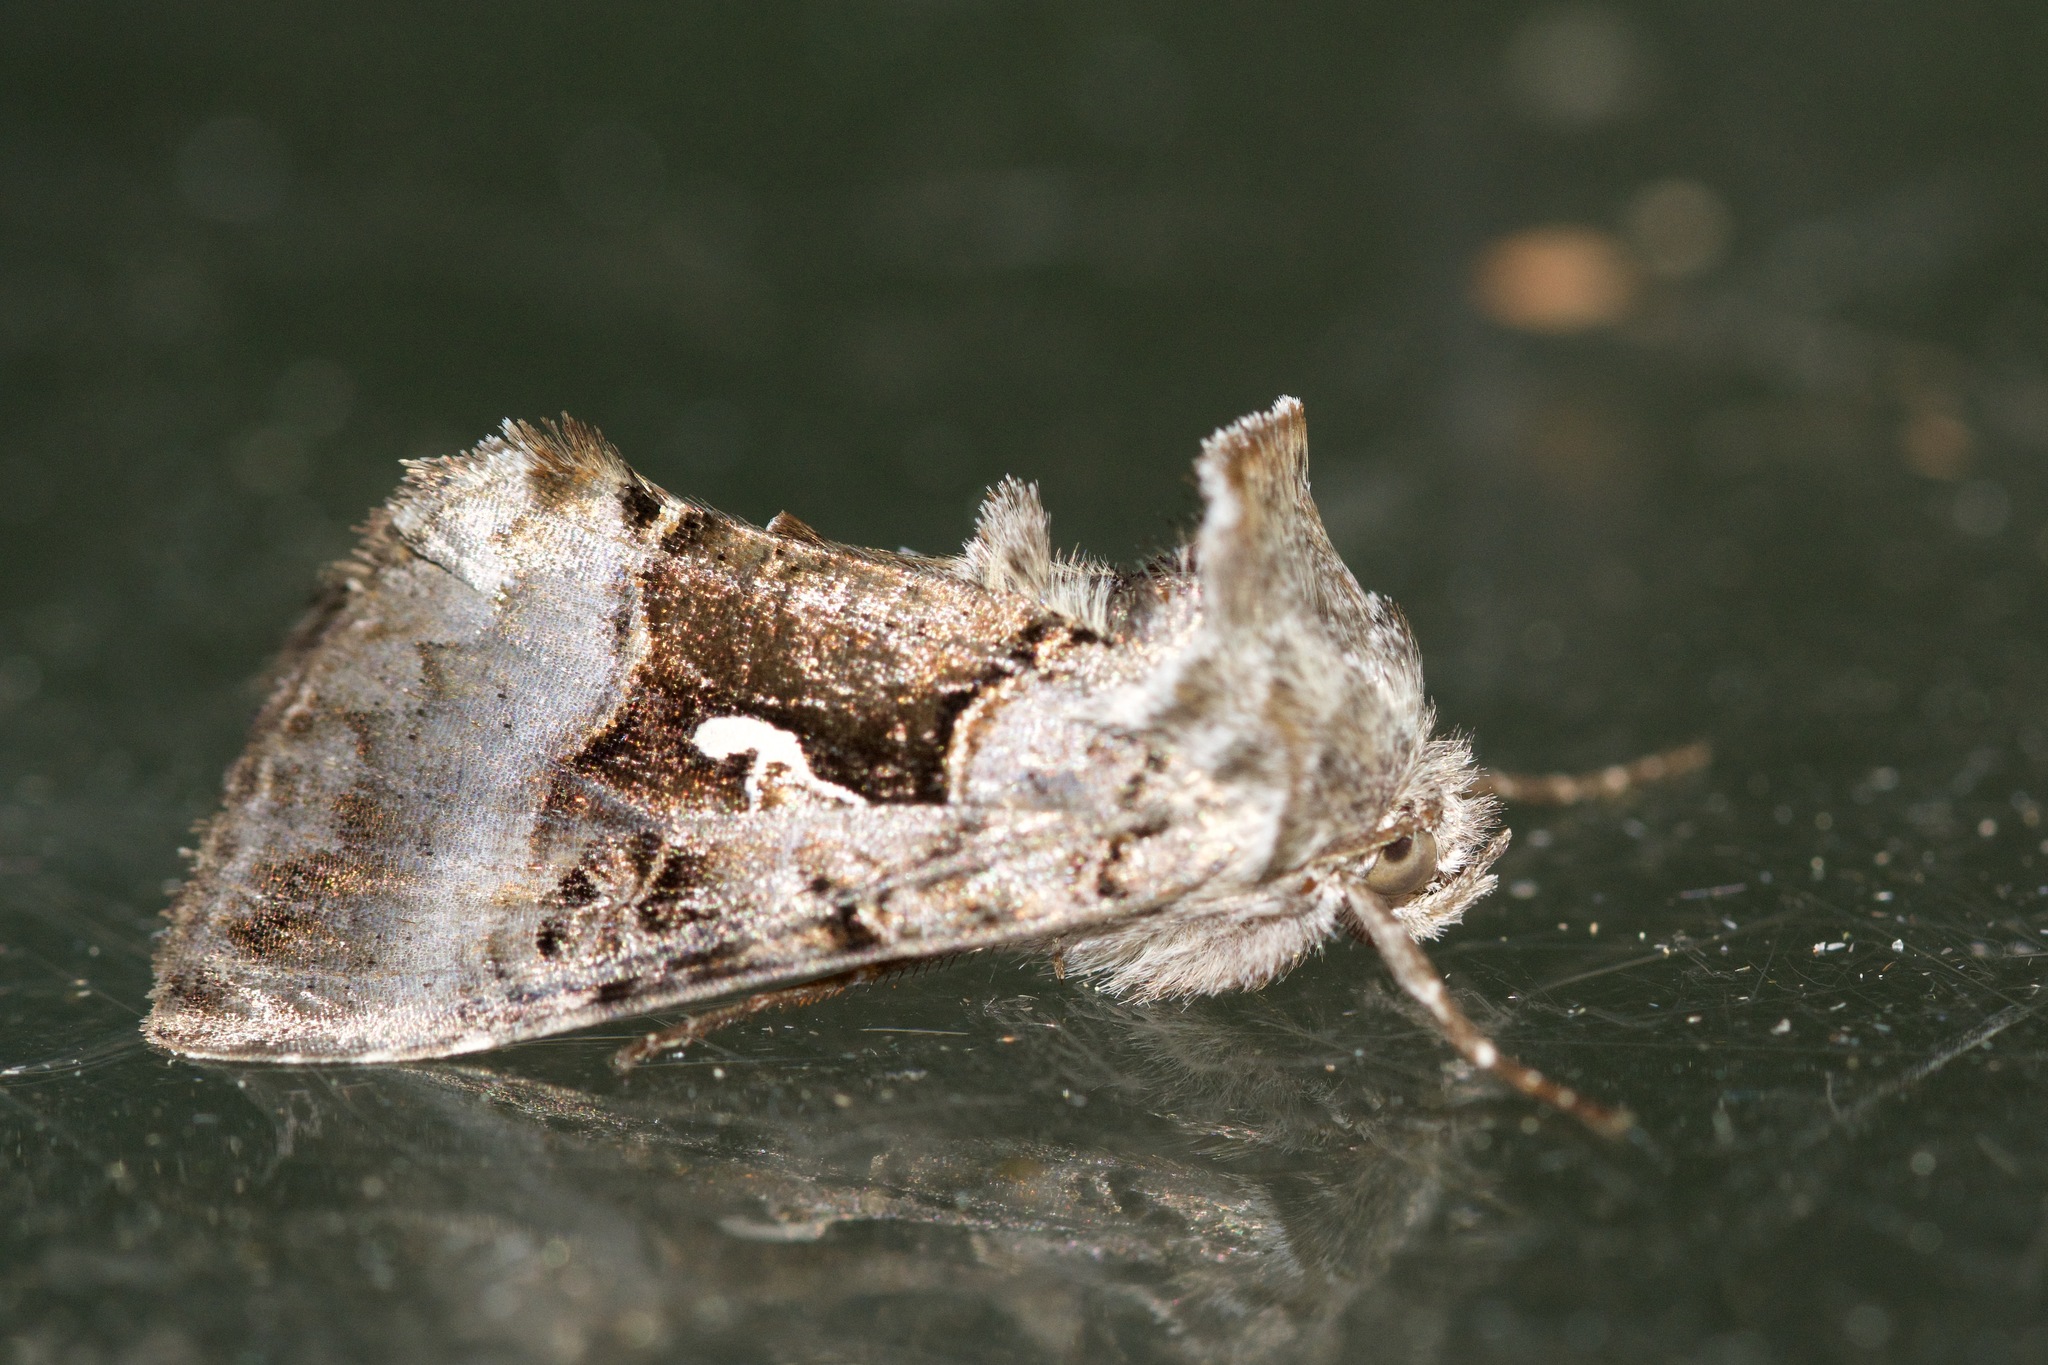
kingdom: Animalia
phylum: Arthropoda
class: Insecta
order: Lepidoptera
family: Noctuidae
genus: Syngrapha
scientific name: Syngrapha microgamma
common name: Small gamma looper moth
